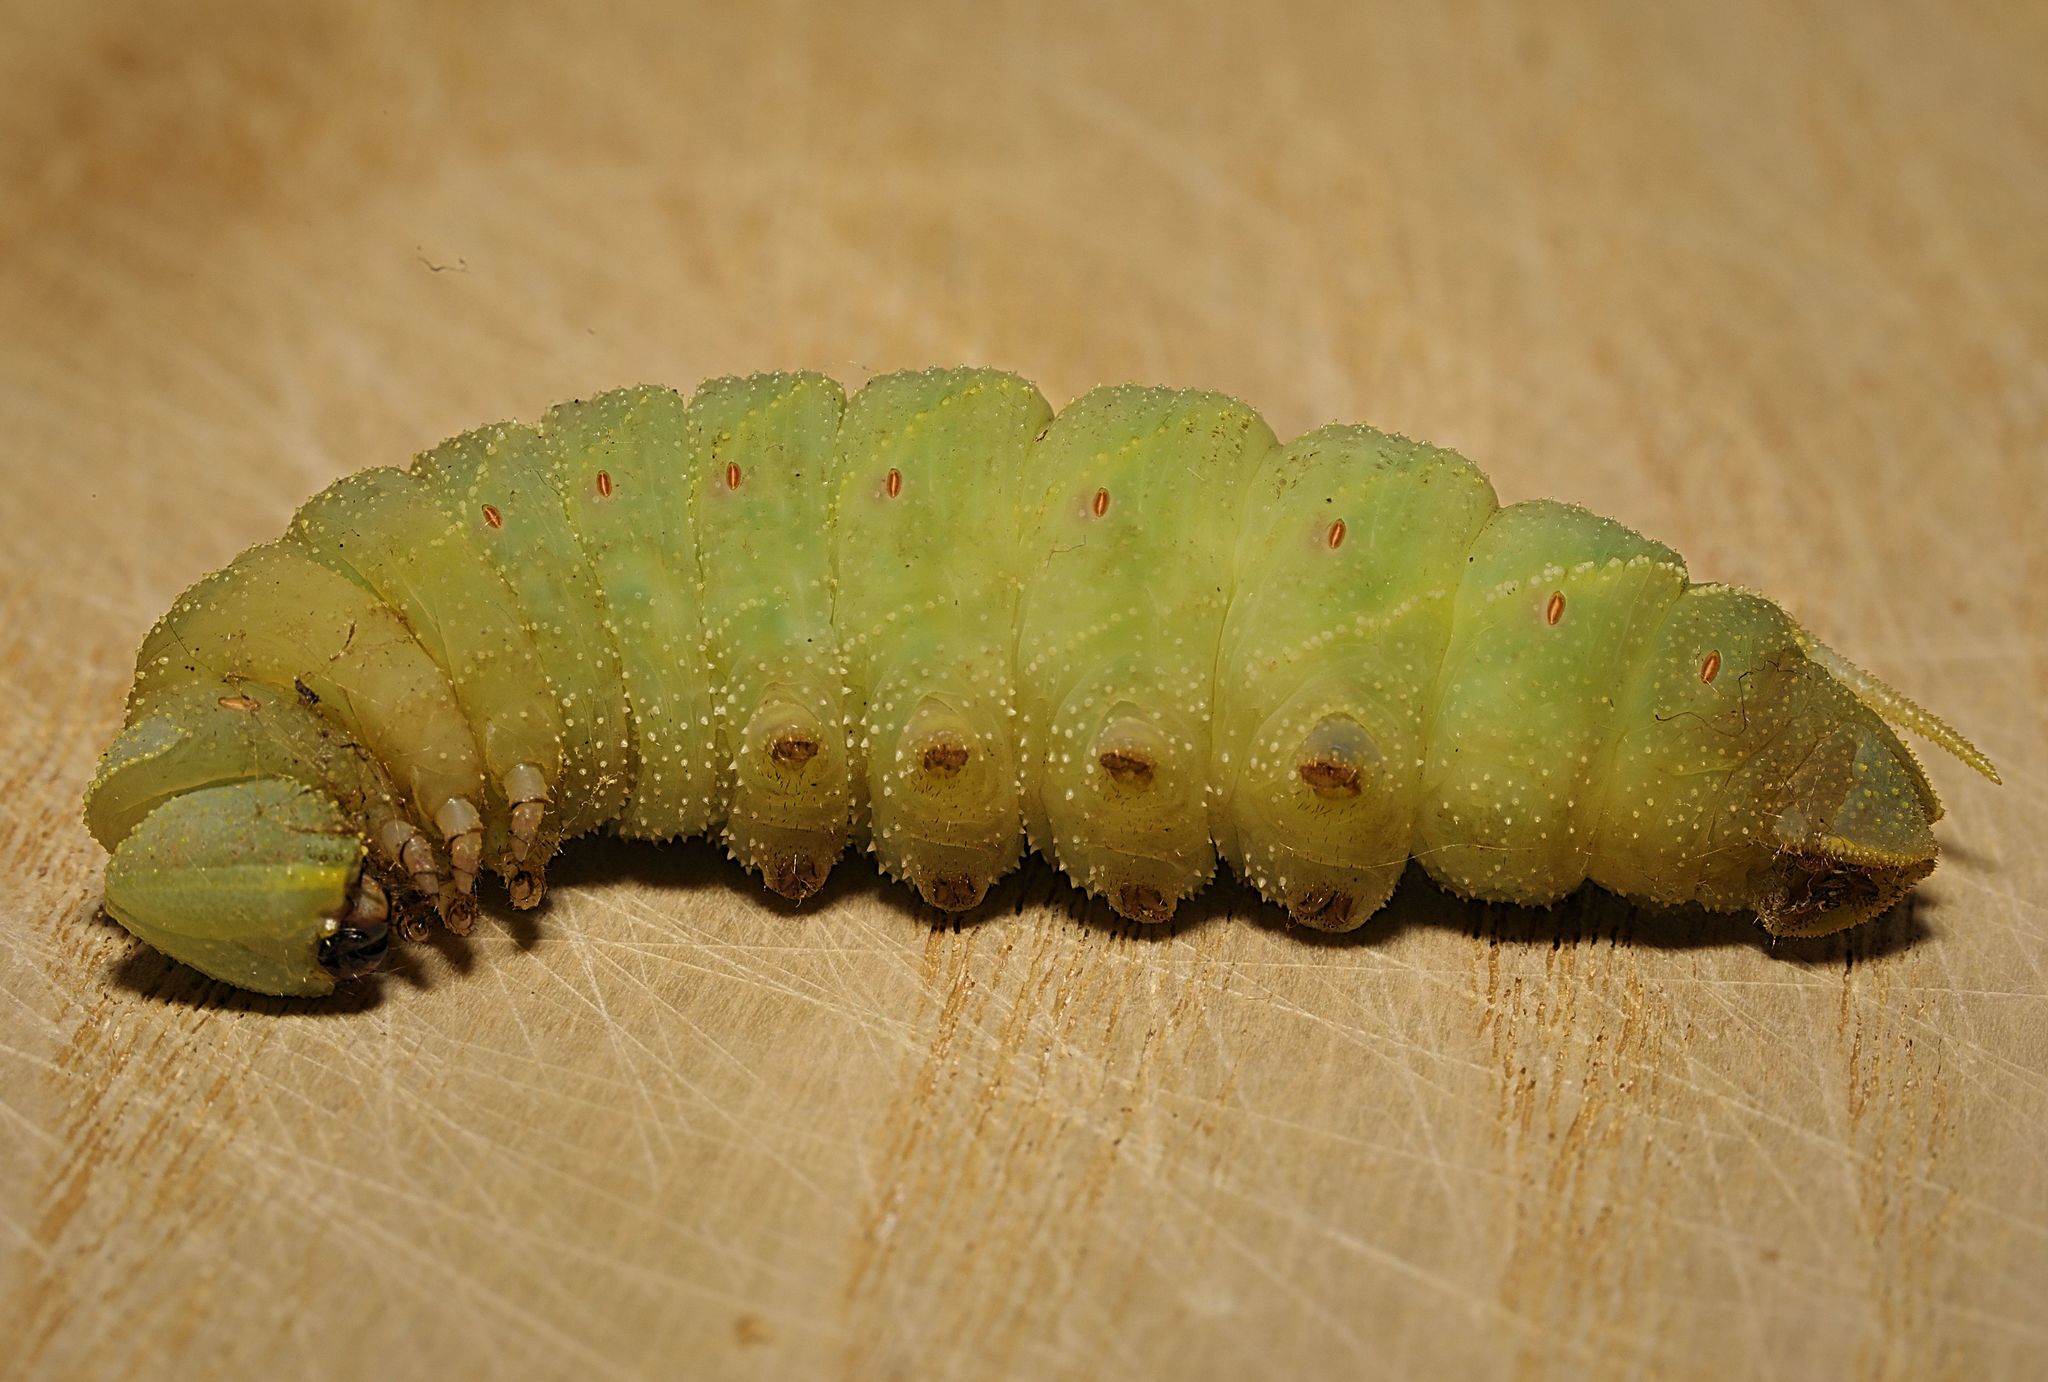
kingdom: Animalia
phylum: Arthropoda
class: Insecta
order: Lepidoptera
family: Sphingidae
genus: Laothoe
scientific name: Laothoe populi
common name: Poplar hawk-moth
